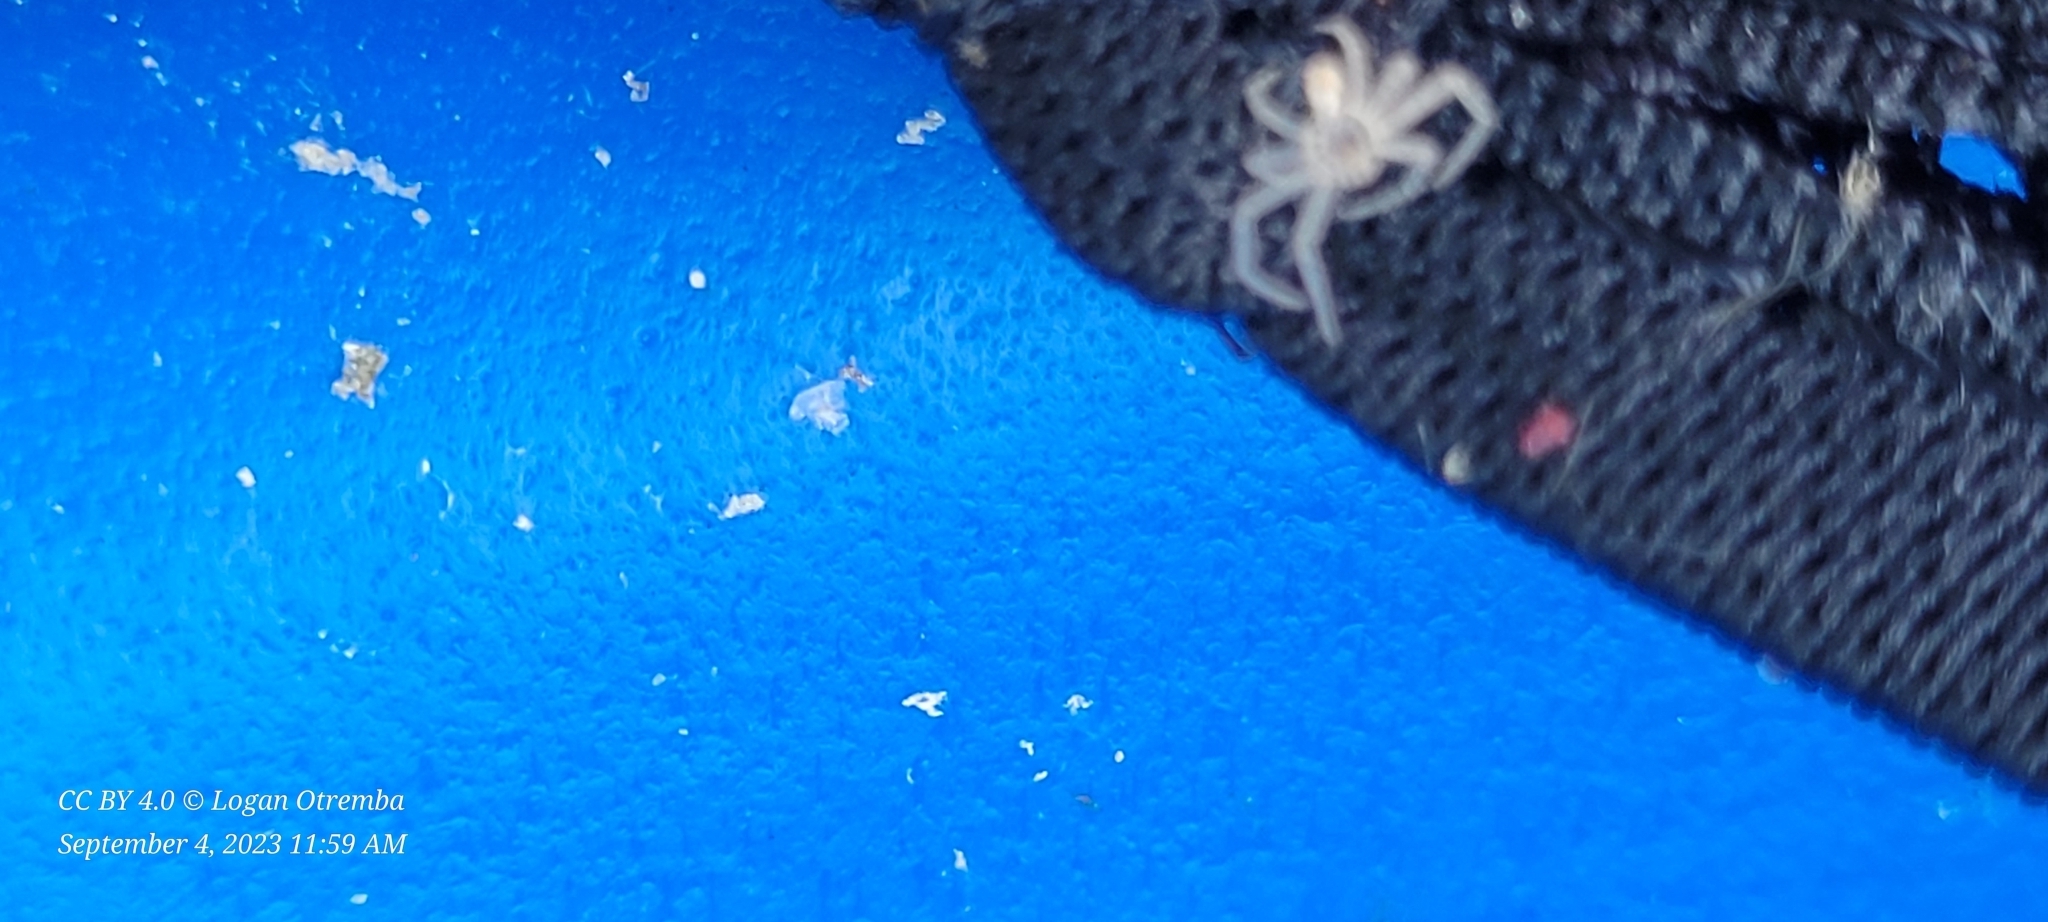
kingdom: Animalia
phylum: Arthropoda
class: Arachnida
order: Araneae
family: Theridiidae
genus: Steatoda
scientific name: Steatoda borealis
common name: Boreal combfoot
